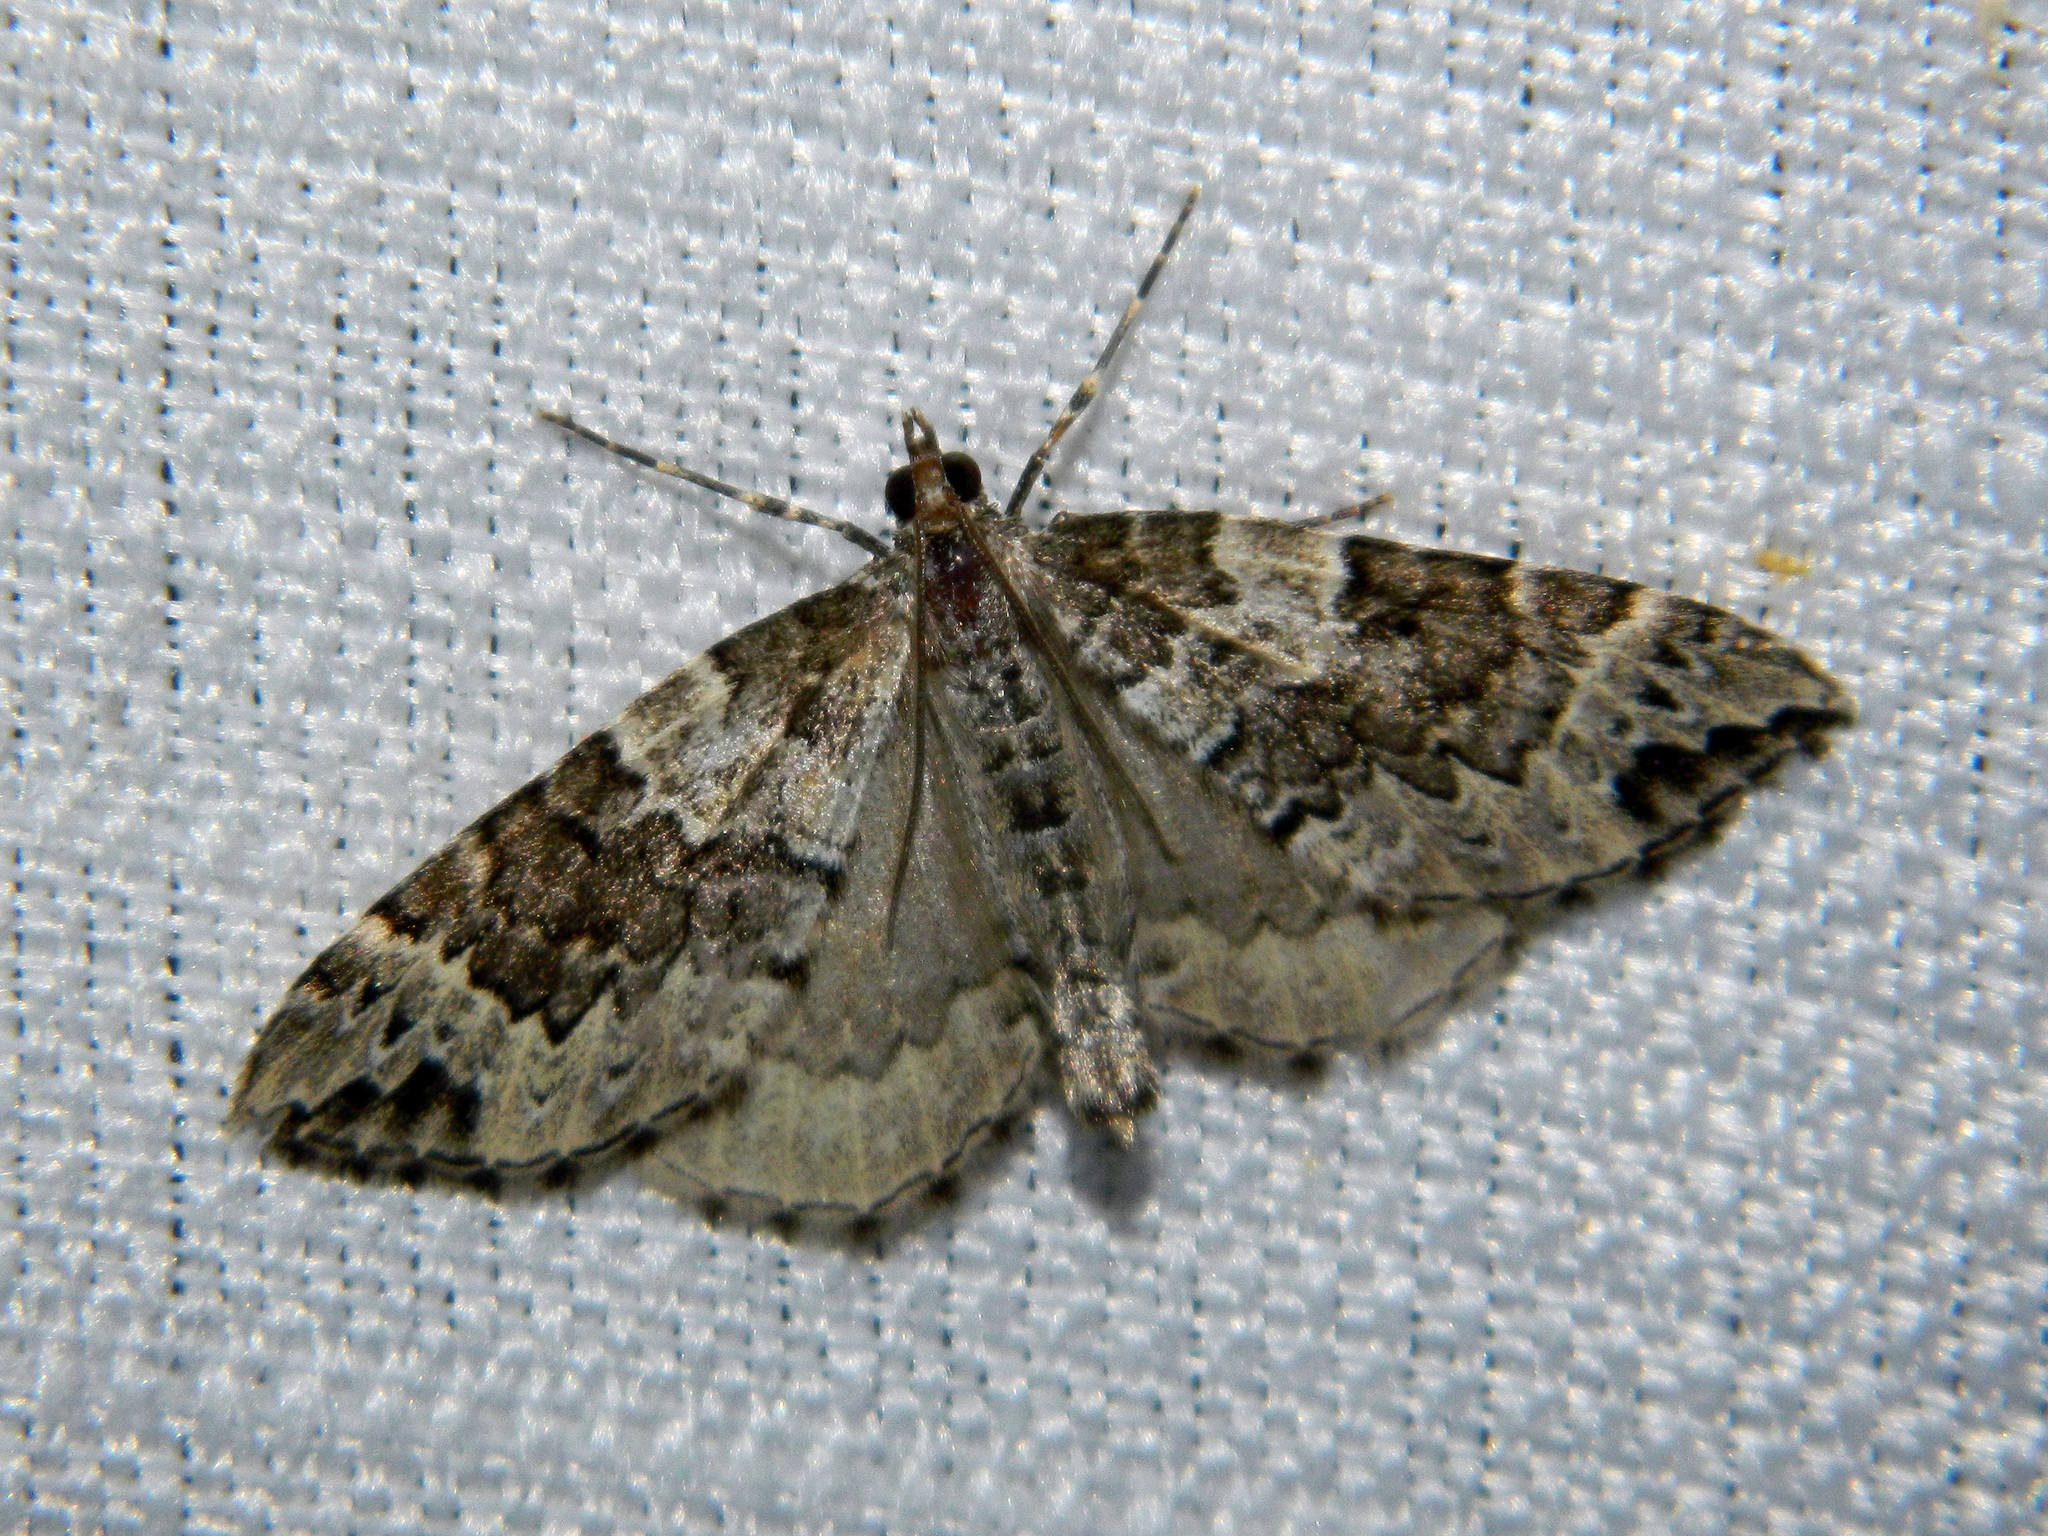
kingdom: Animalia
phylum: Arthropoda
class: Insecta
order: Lepidoptera
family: Geometridae
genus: Eulithis
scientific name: Eulithis explanata
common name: White eulithis
